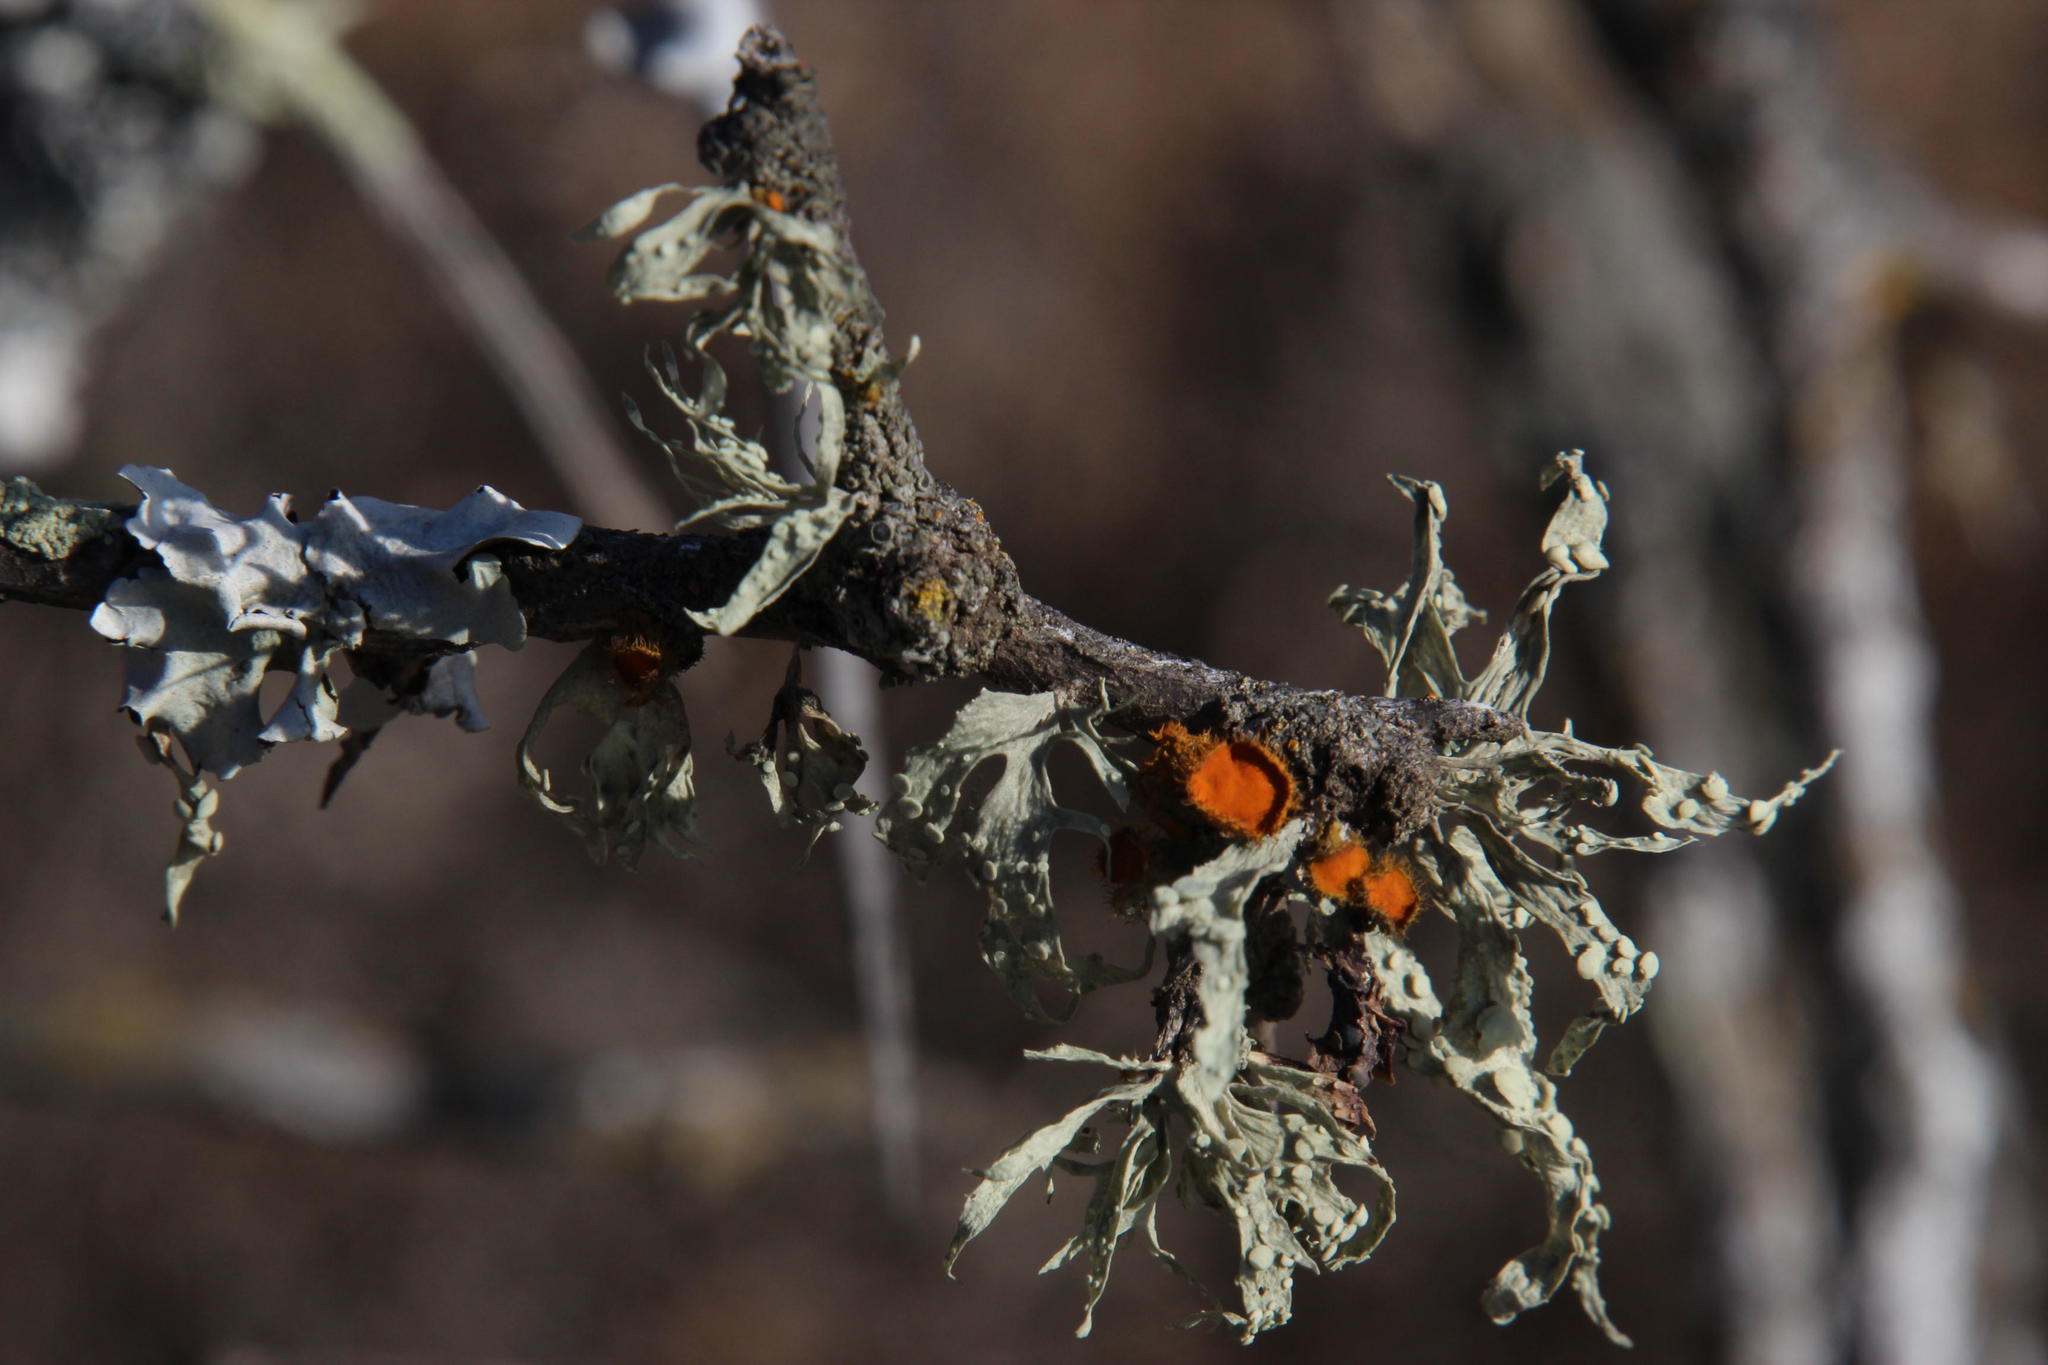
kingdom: Fungi
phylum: Ascomycota
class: Lecanoromycetes
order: Lecanorales
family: Ramalinaceae
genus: Ramalina
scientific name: Ramalina celastri
